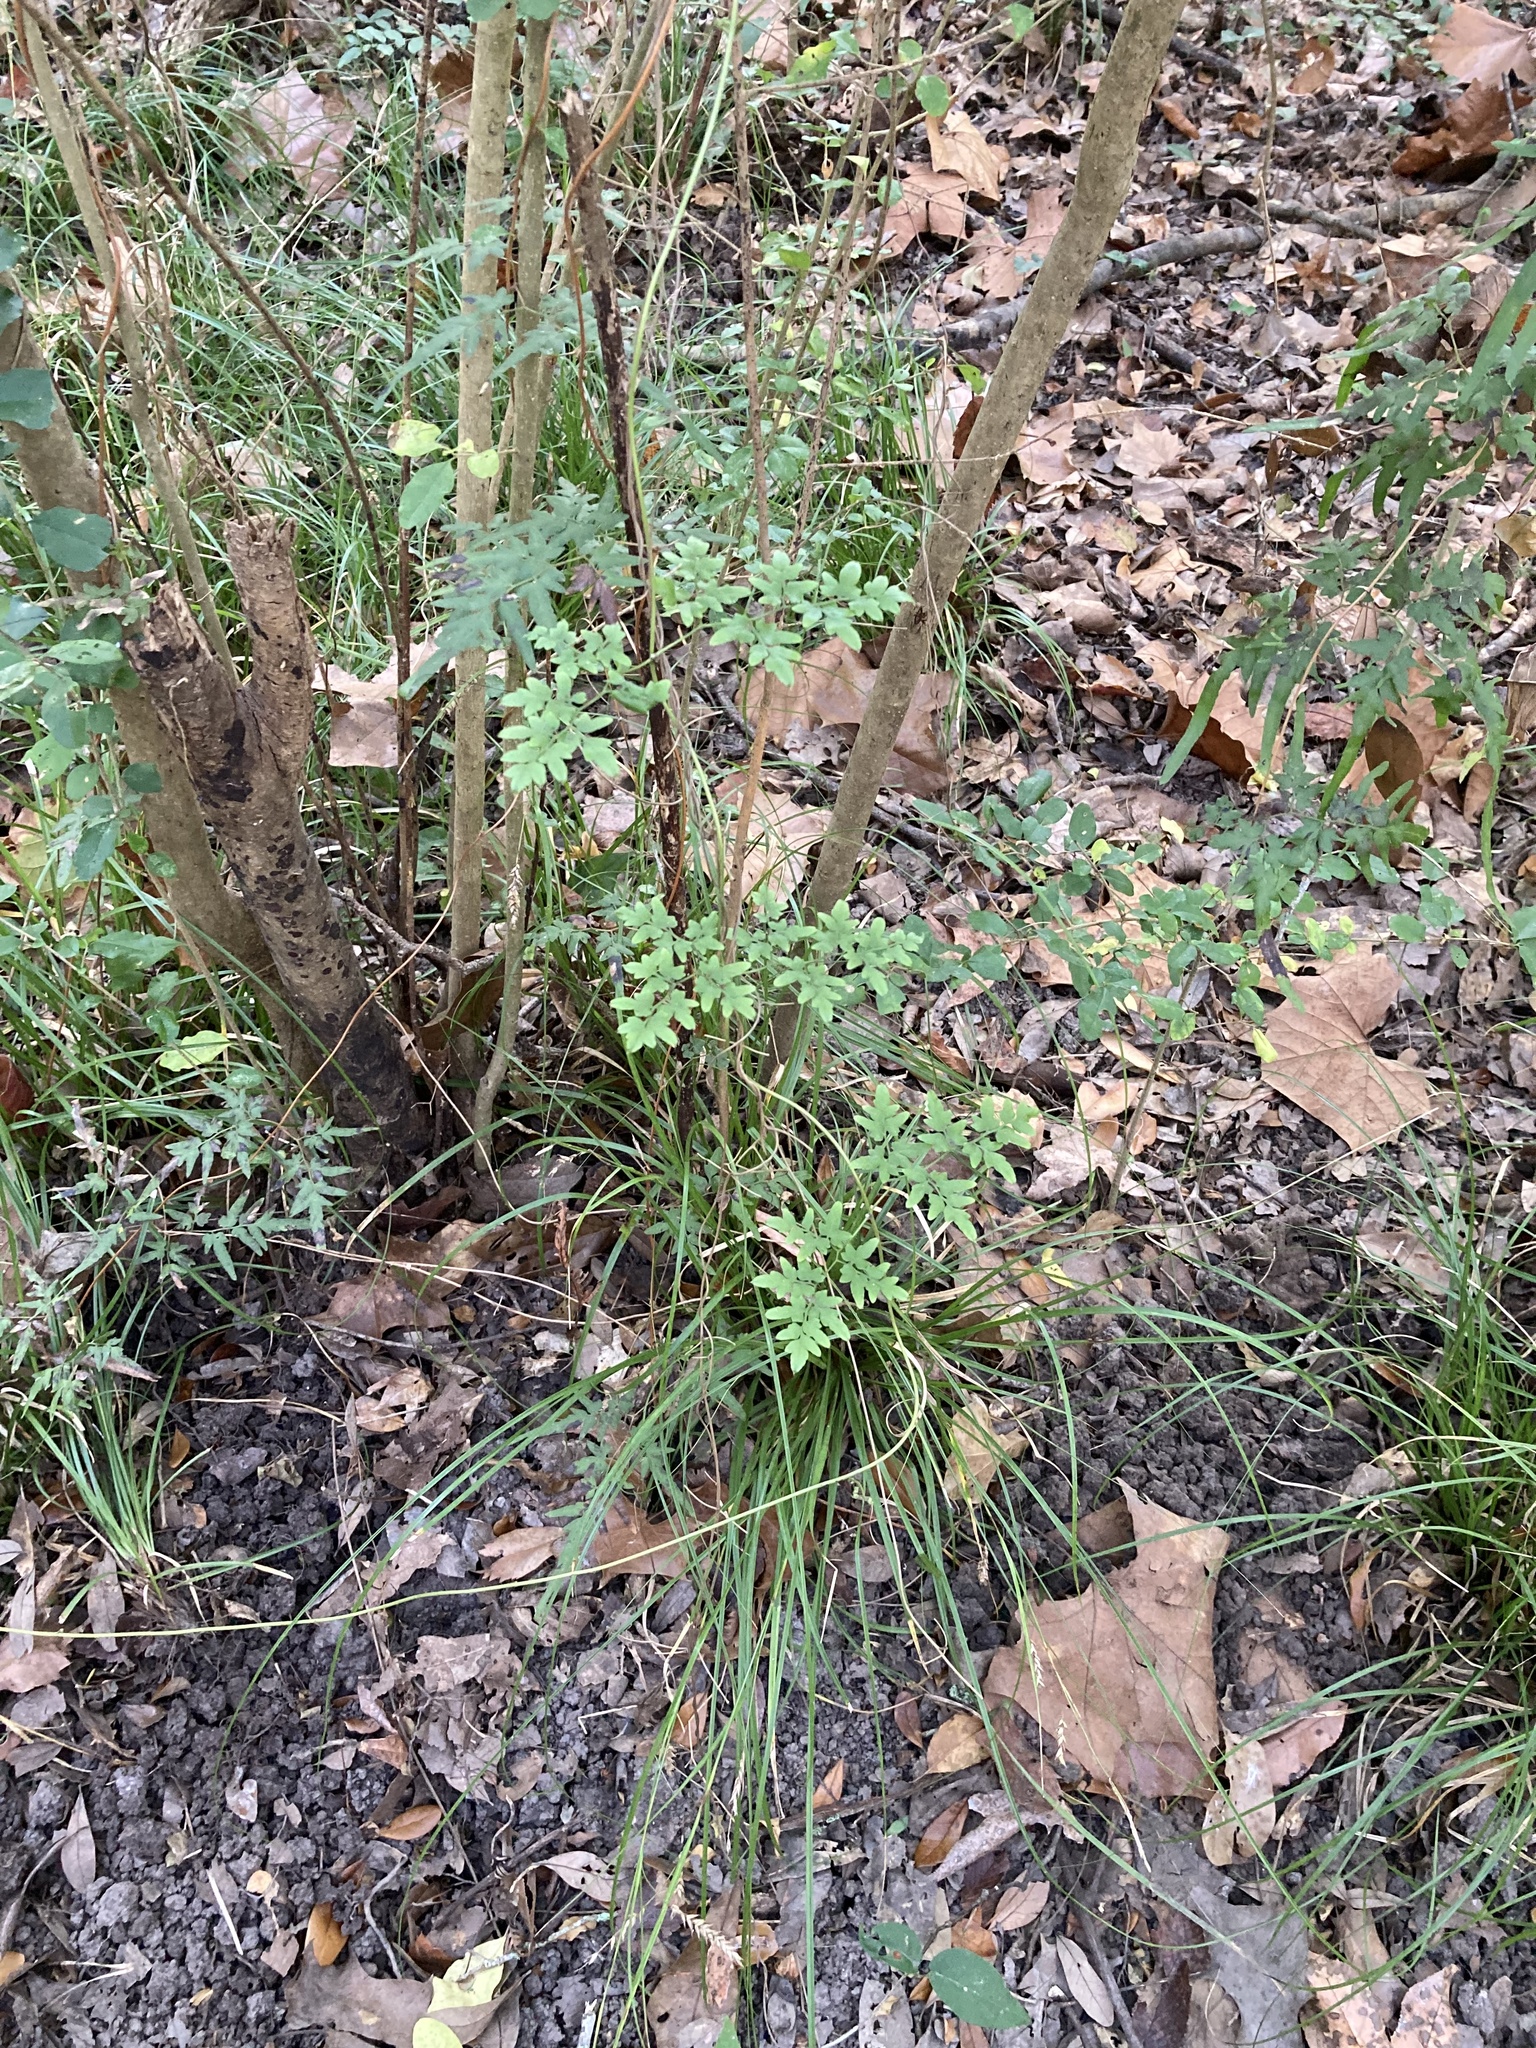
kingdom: Plantae
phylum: Tracheophyta
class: Polypodiopsida
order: Schizaeales
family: Lygodiaceae
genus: Lygodium
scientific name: Lygodium japonicum
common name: Japanese climbing fern
